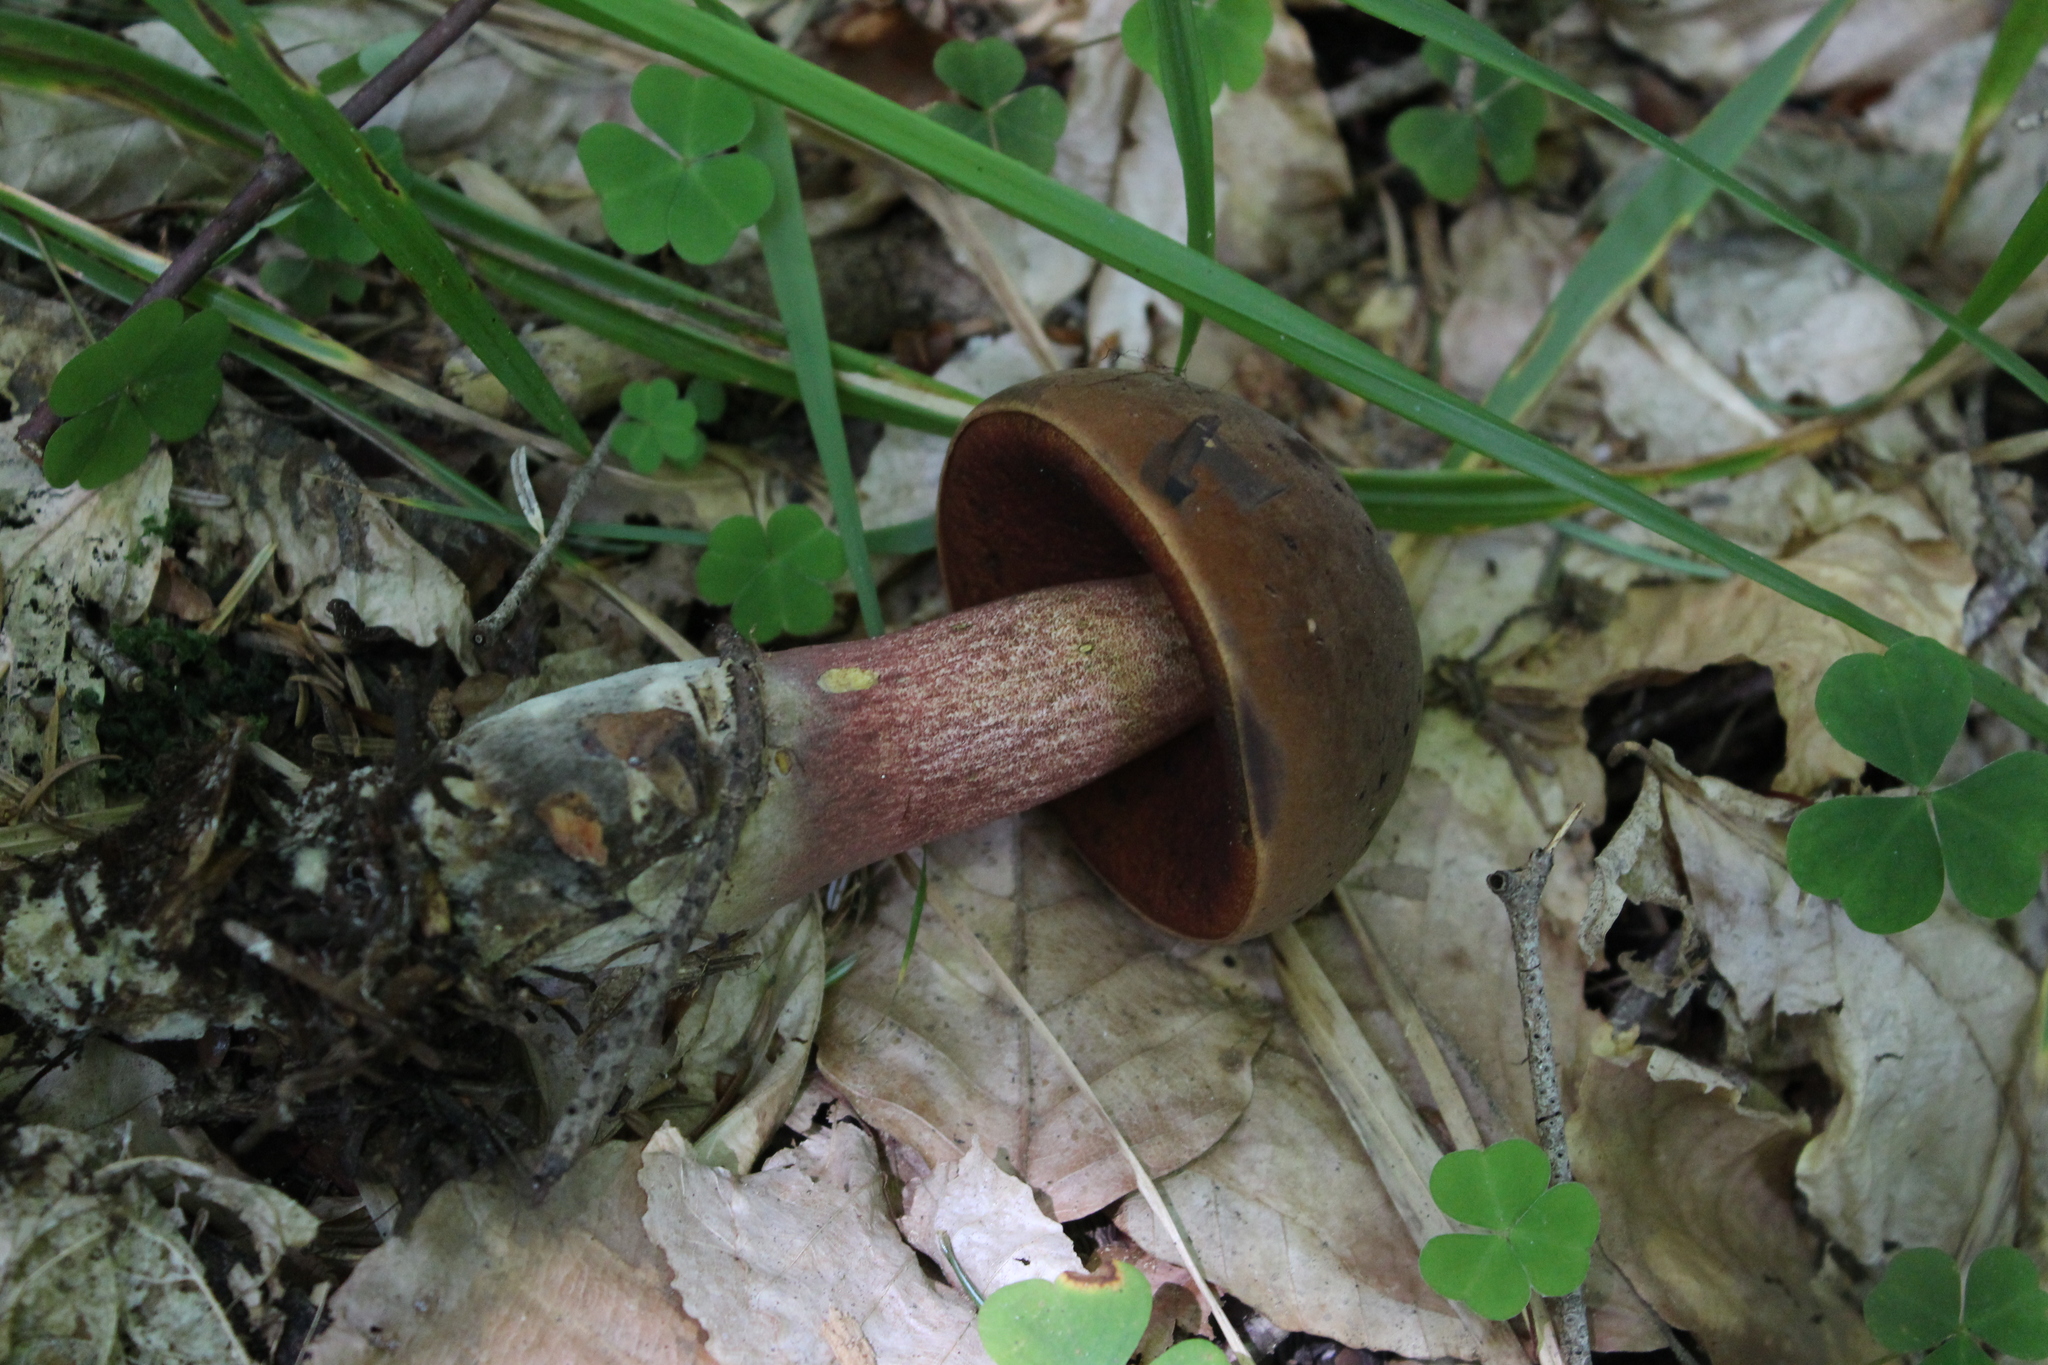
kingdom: Fungi
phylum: Basidiomycota
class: Agaricomycetes
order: Boletales
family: Boletaceae
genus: Neoboletus
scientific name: Neoboletus erythropus
